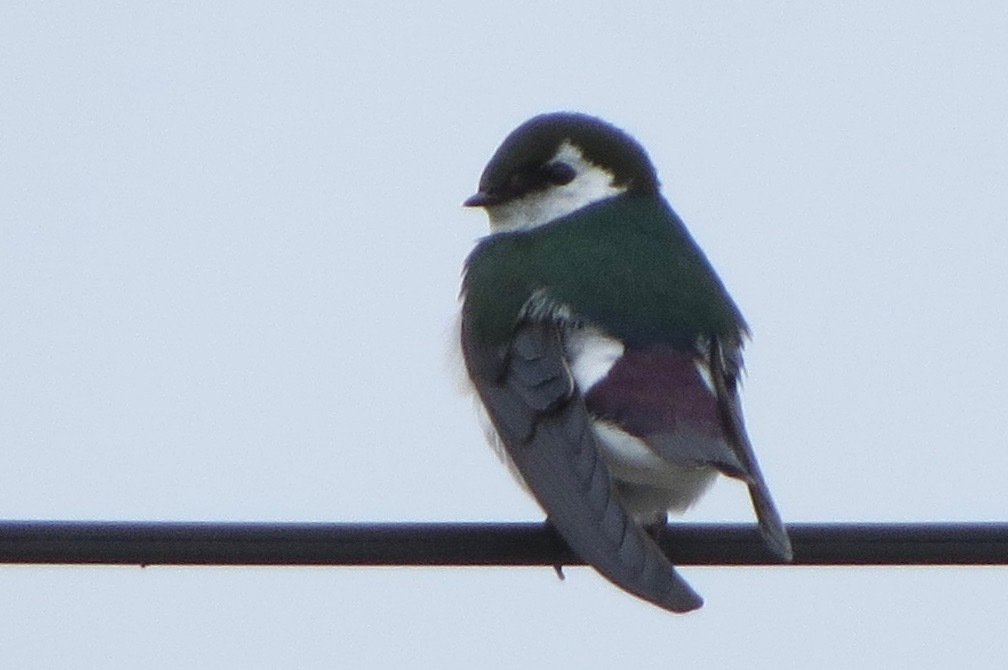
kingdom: Animalia
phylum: Chordata
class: Aves
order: Passeriformes
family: Hirundinidae
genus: Tachycineta
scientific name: Tachycineta thalassina
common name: Violet-green swallow
